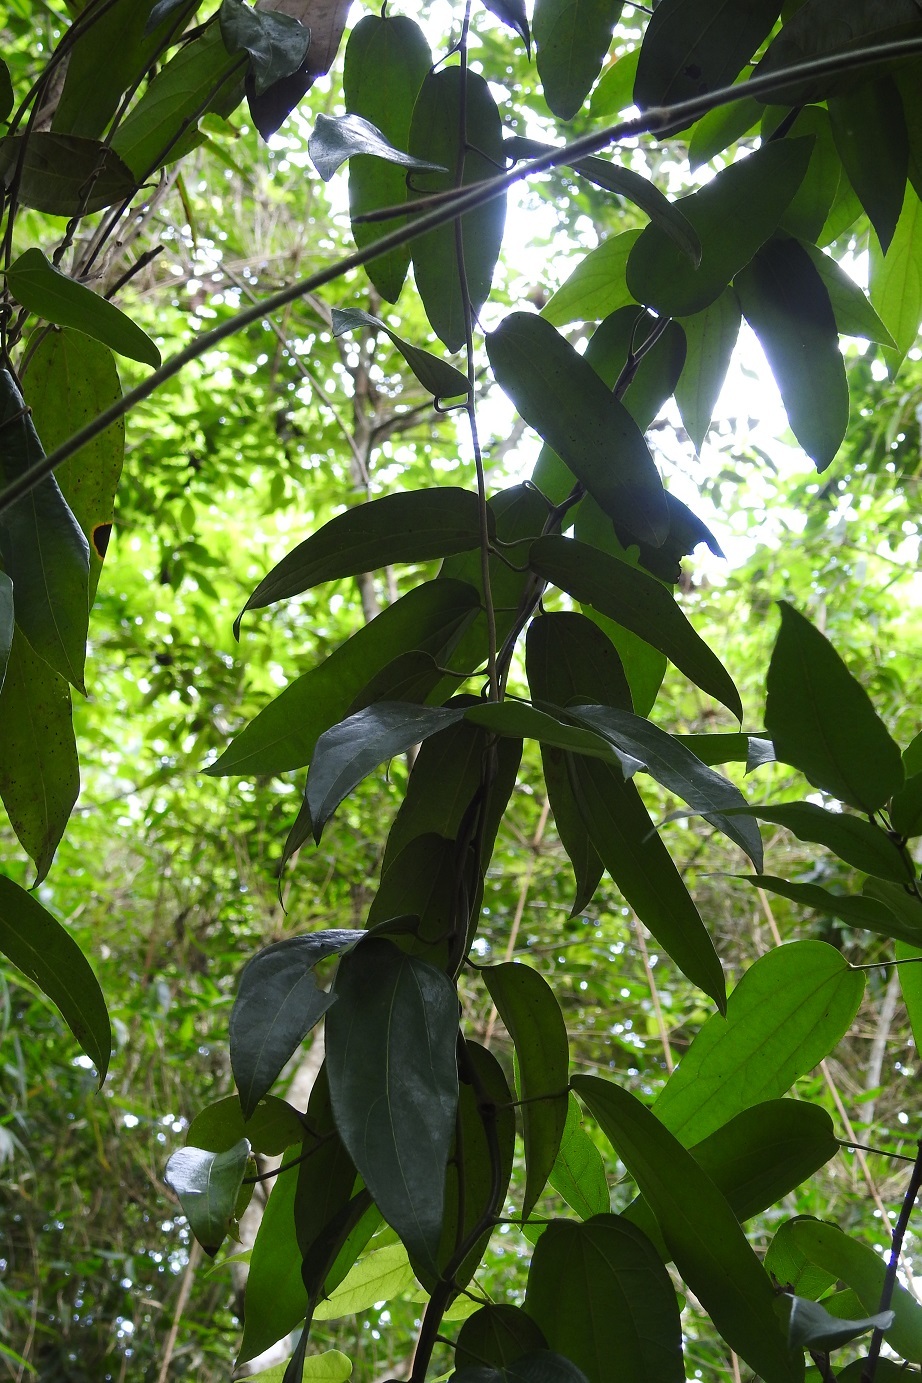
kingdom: Plantae
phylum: Tracheophyta
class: Magnoliopsida
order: Ranunculales
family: Menispermaceae
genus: Abuta
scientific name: Abuta chiapasensis
